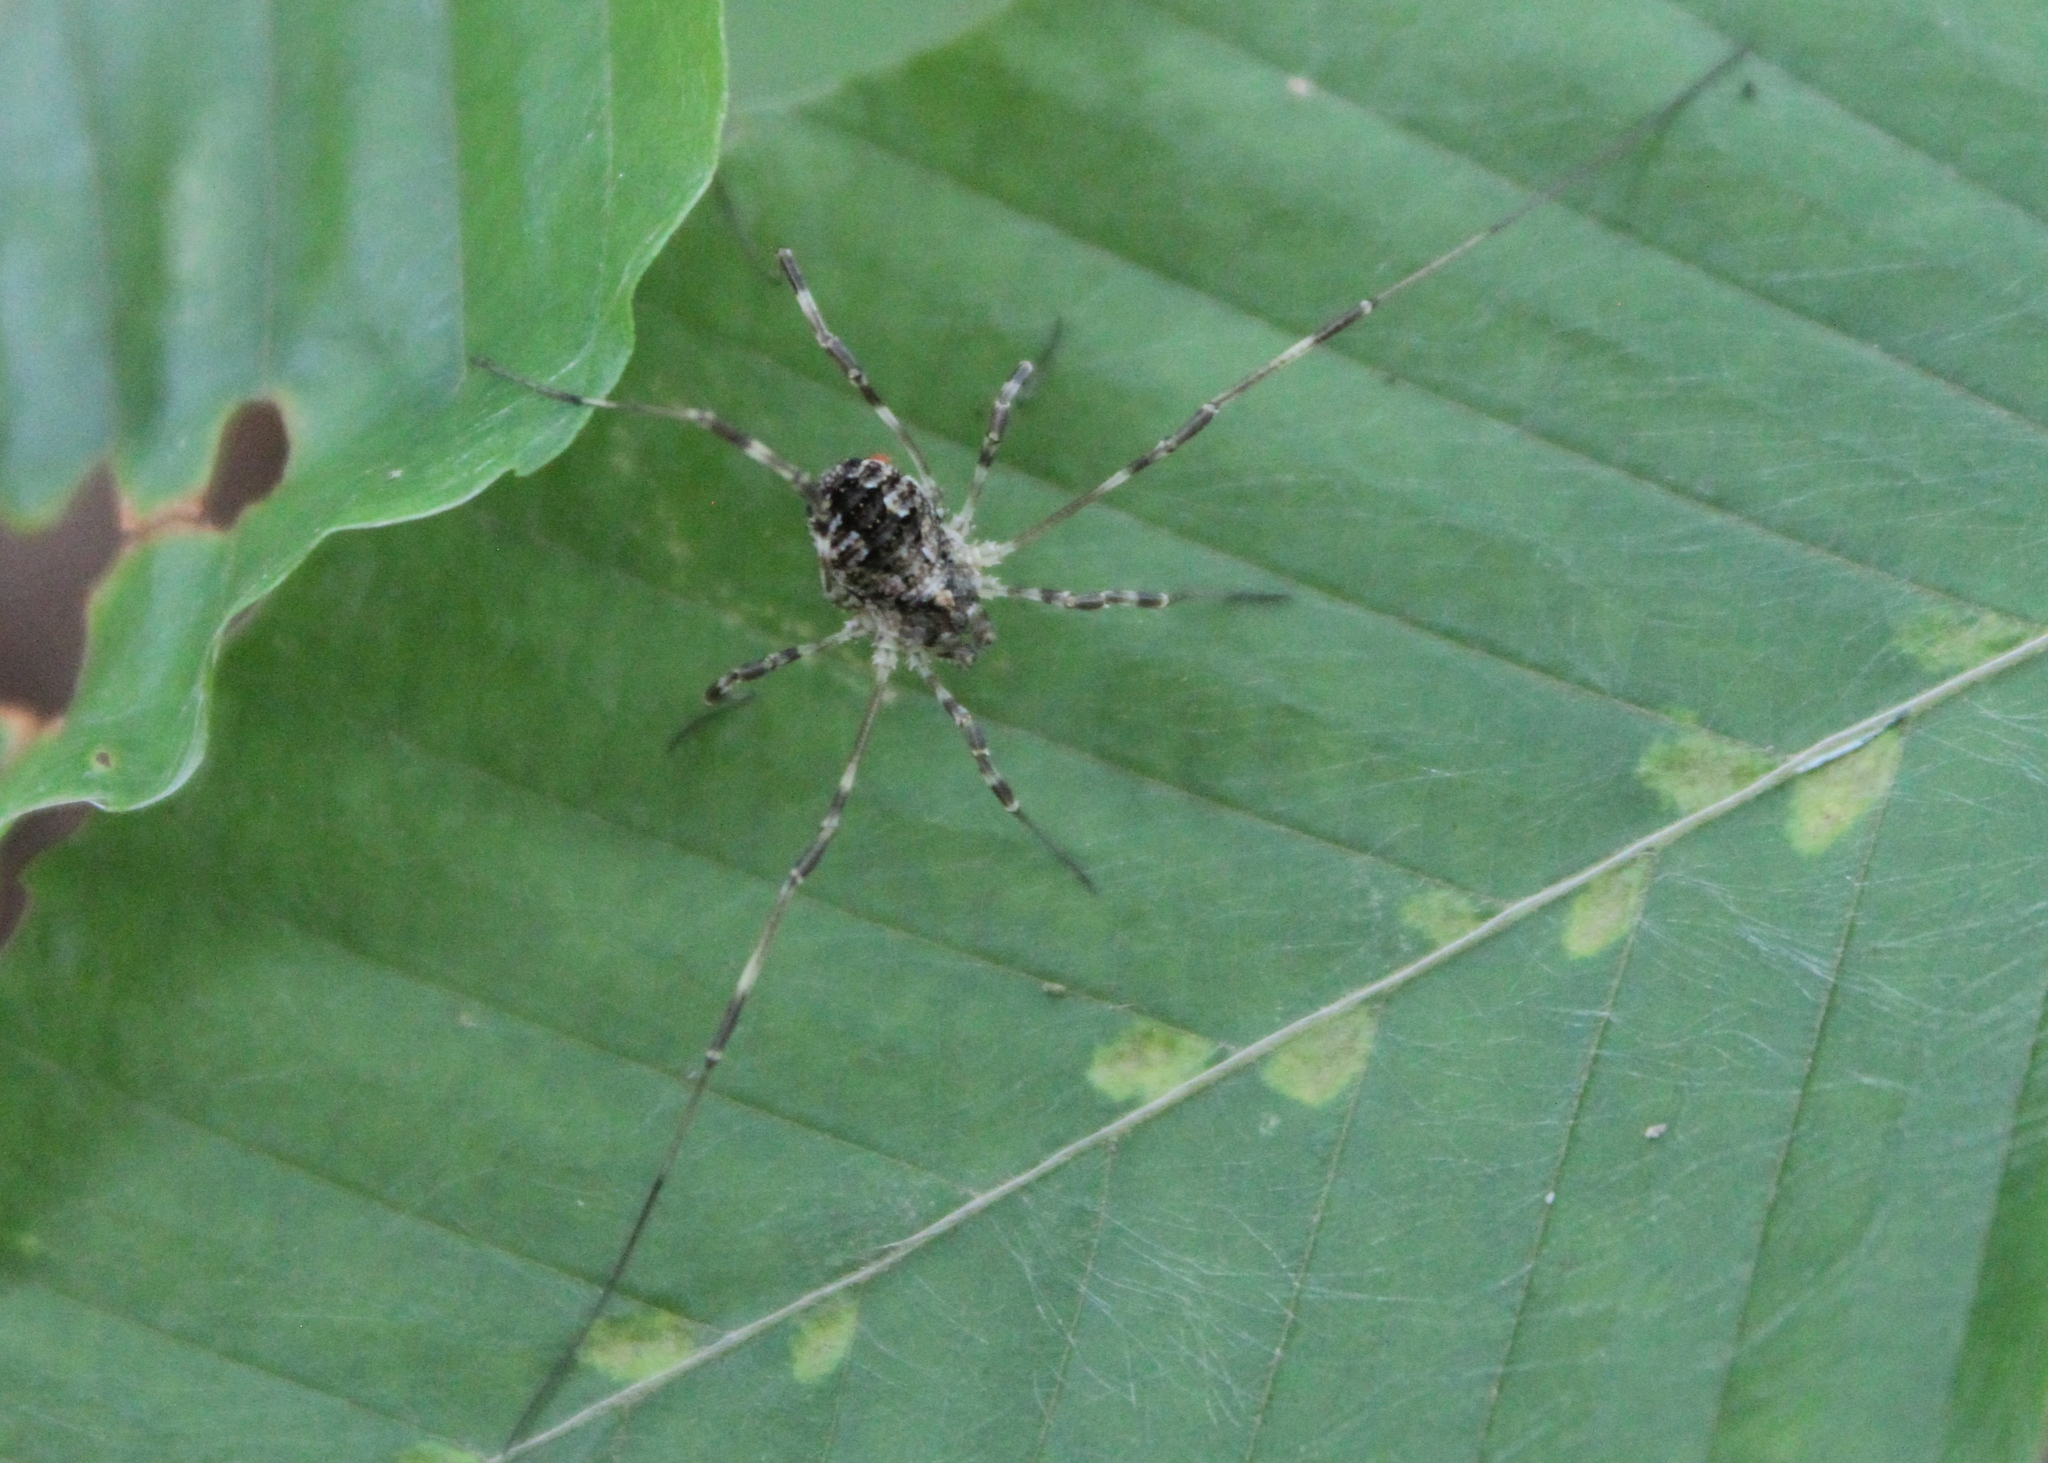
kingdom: Animalia
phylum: Arthropoda
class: Arachnida
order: Opiliones
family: Phalangiidae
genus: Odiellus
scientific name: Odiellus pictus
